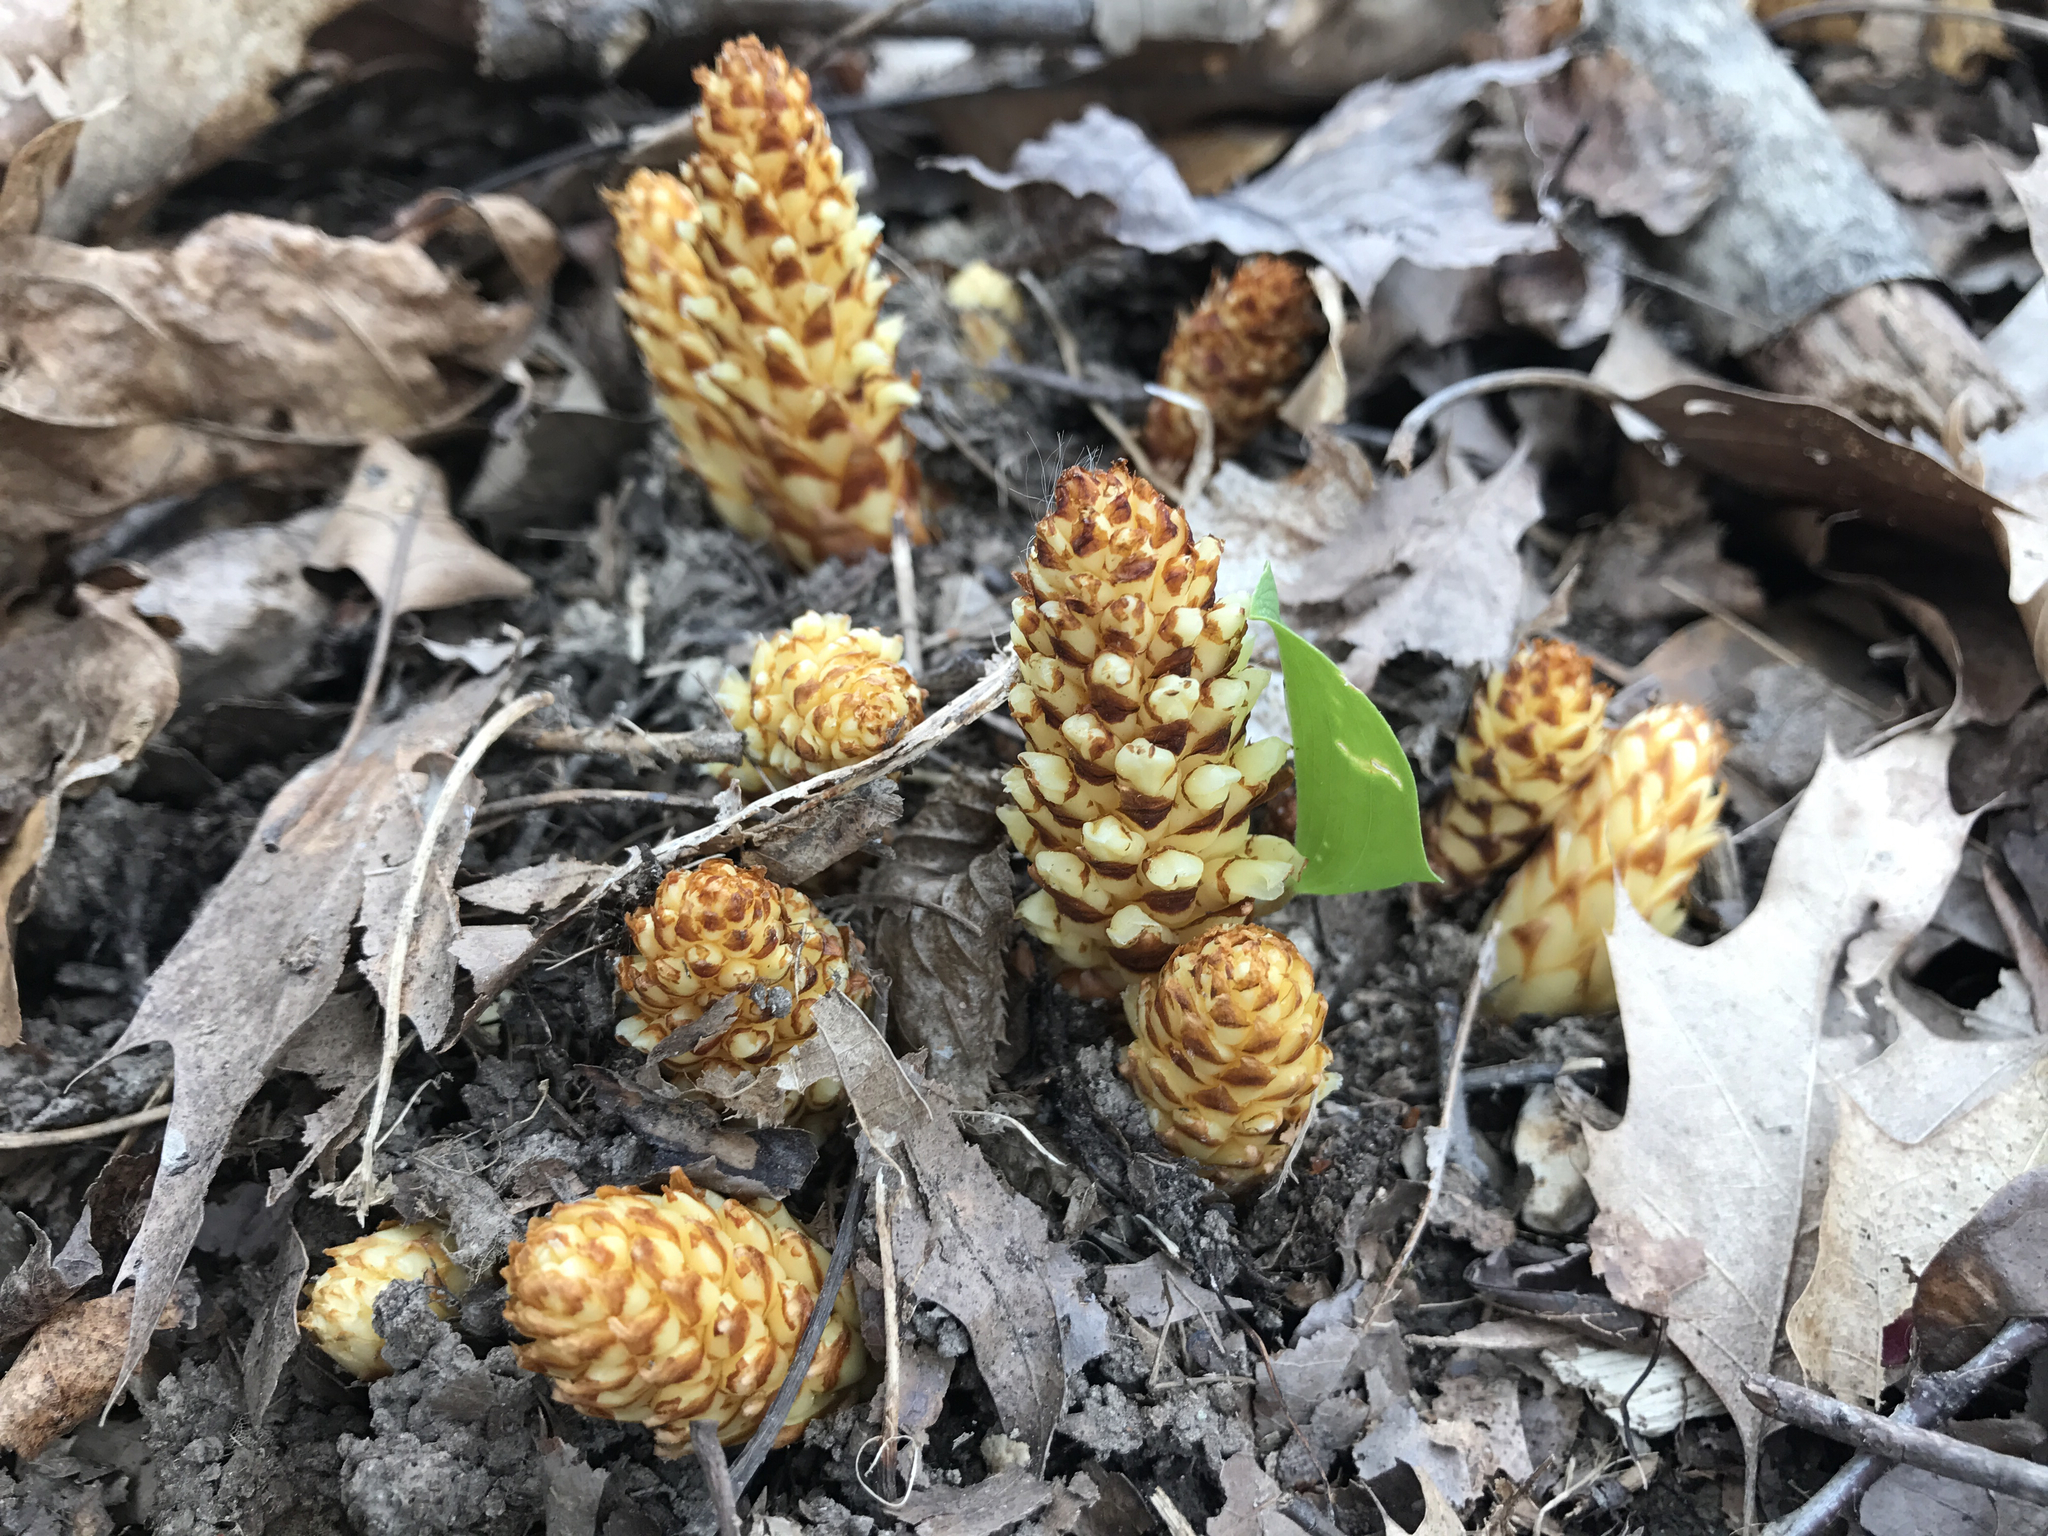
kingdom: Plantae
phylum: Tracheophyta
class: Magnoliopsida
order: Lamiales
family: Orobanchaceae
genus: Conopholis
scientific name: Conopholis americana
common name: American cancer-root
